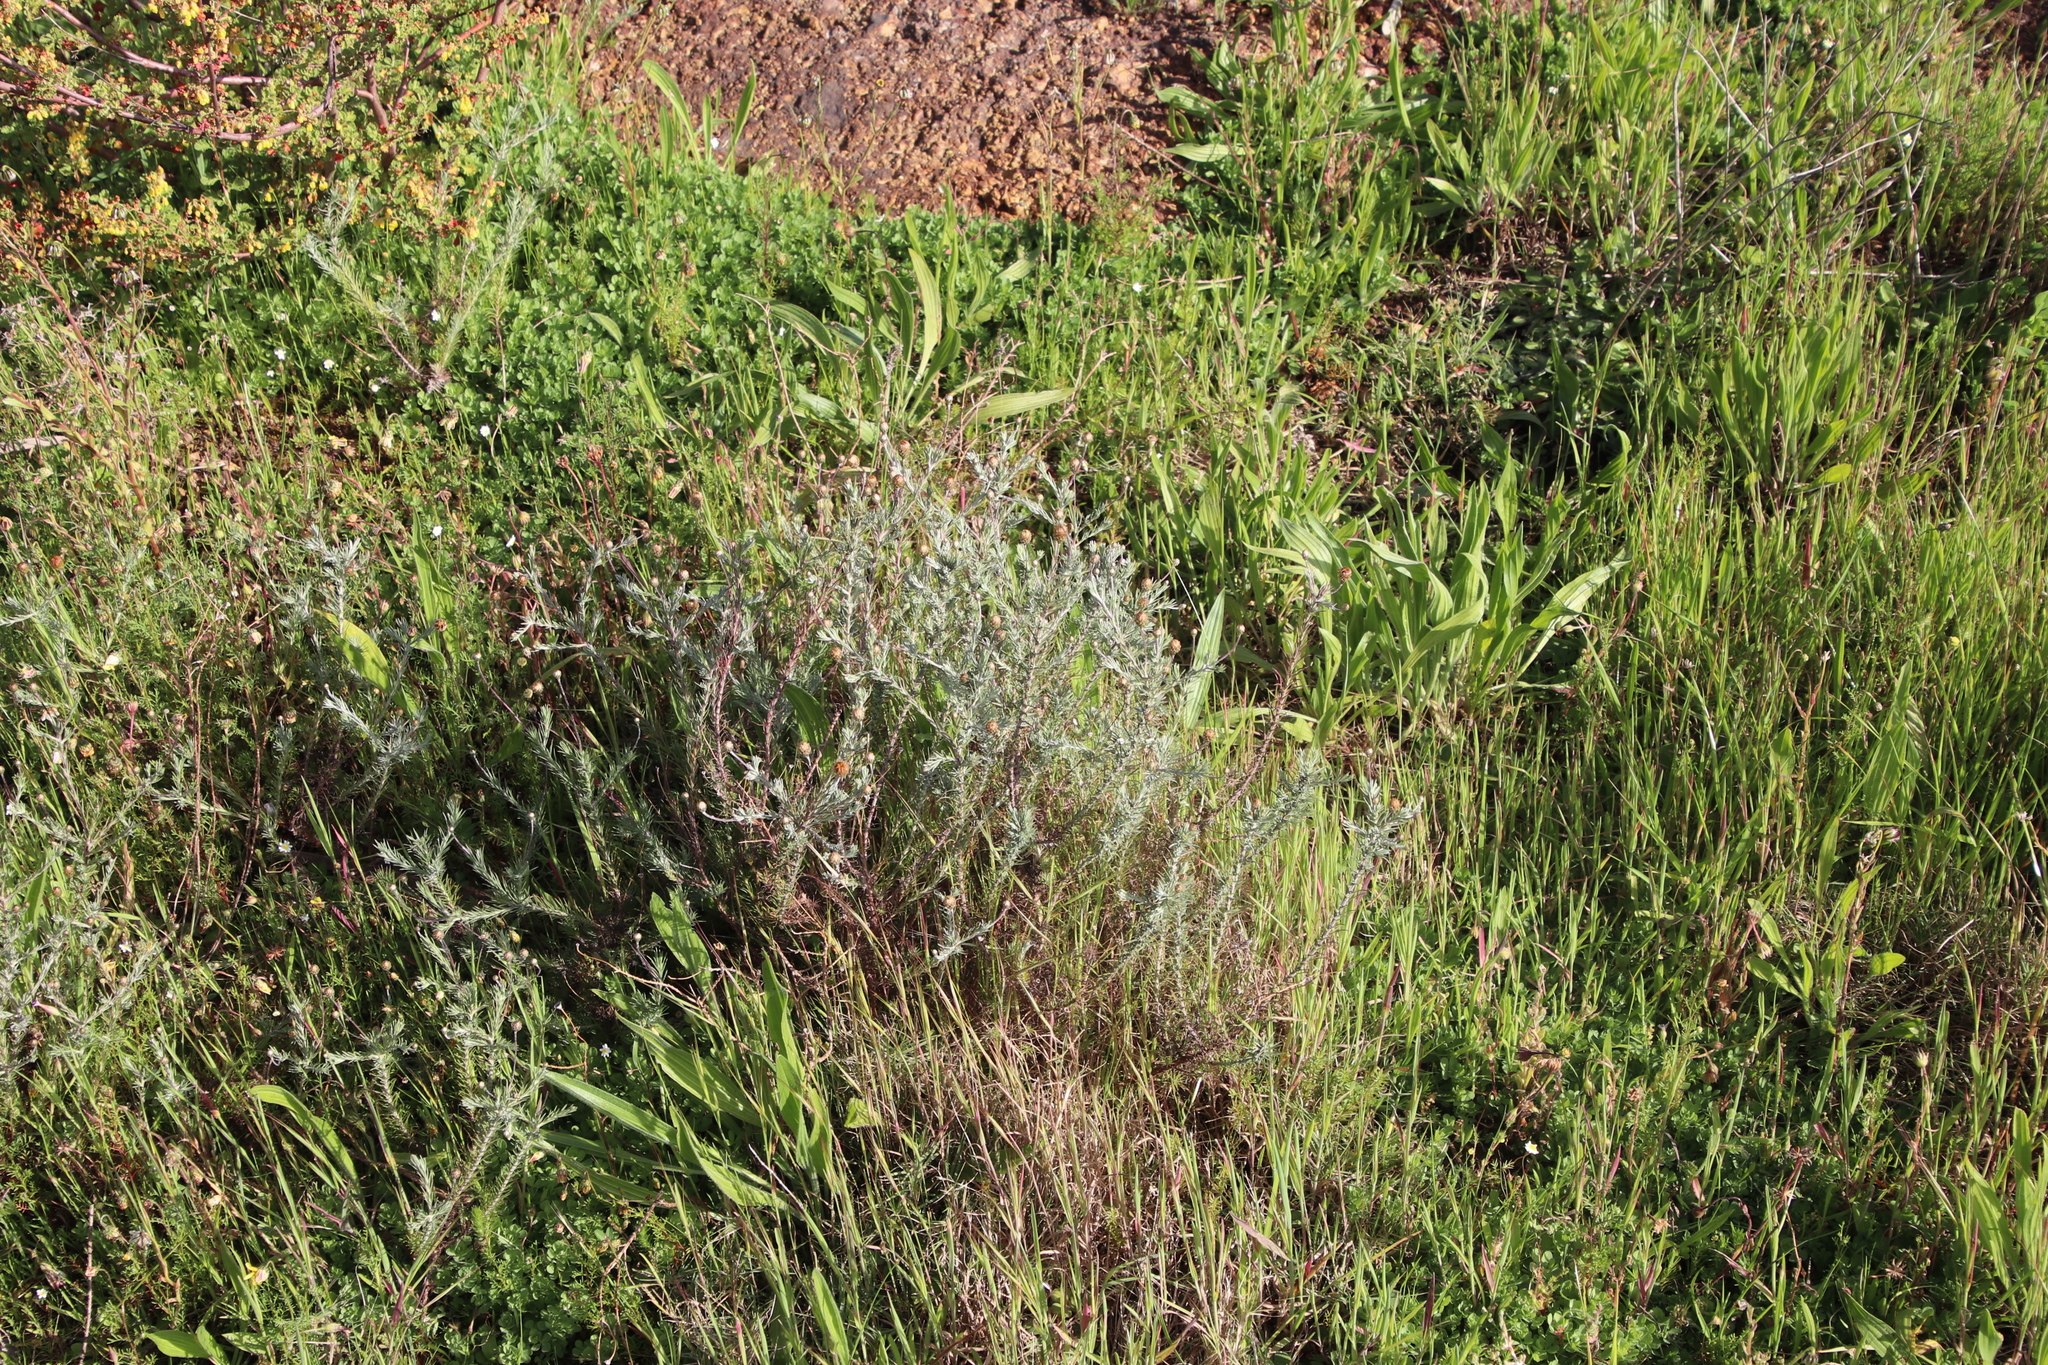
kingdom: Plantae
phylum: Tracheophyta
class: Magnoliopsida
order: Asterales
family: Asteraceae
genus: Leysera
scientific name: Leysera gnaphalodes
